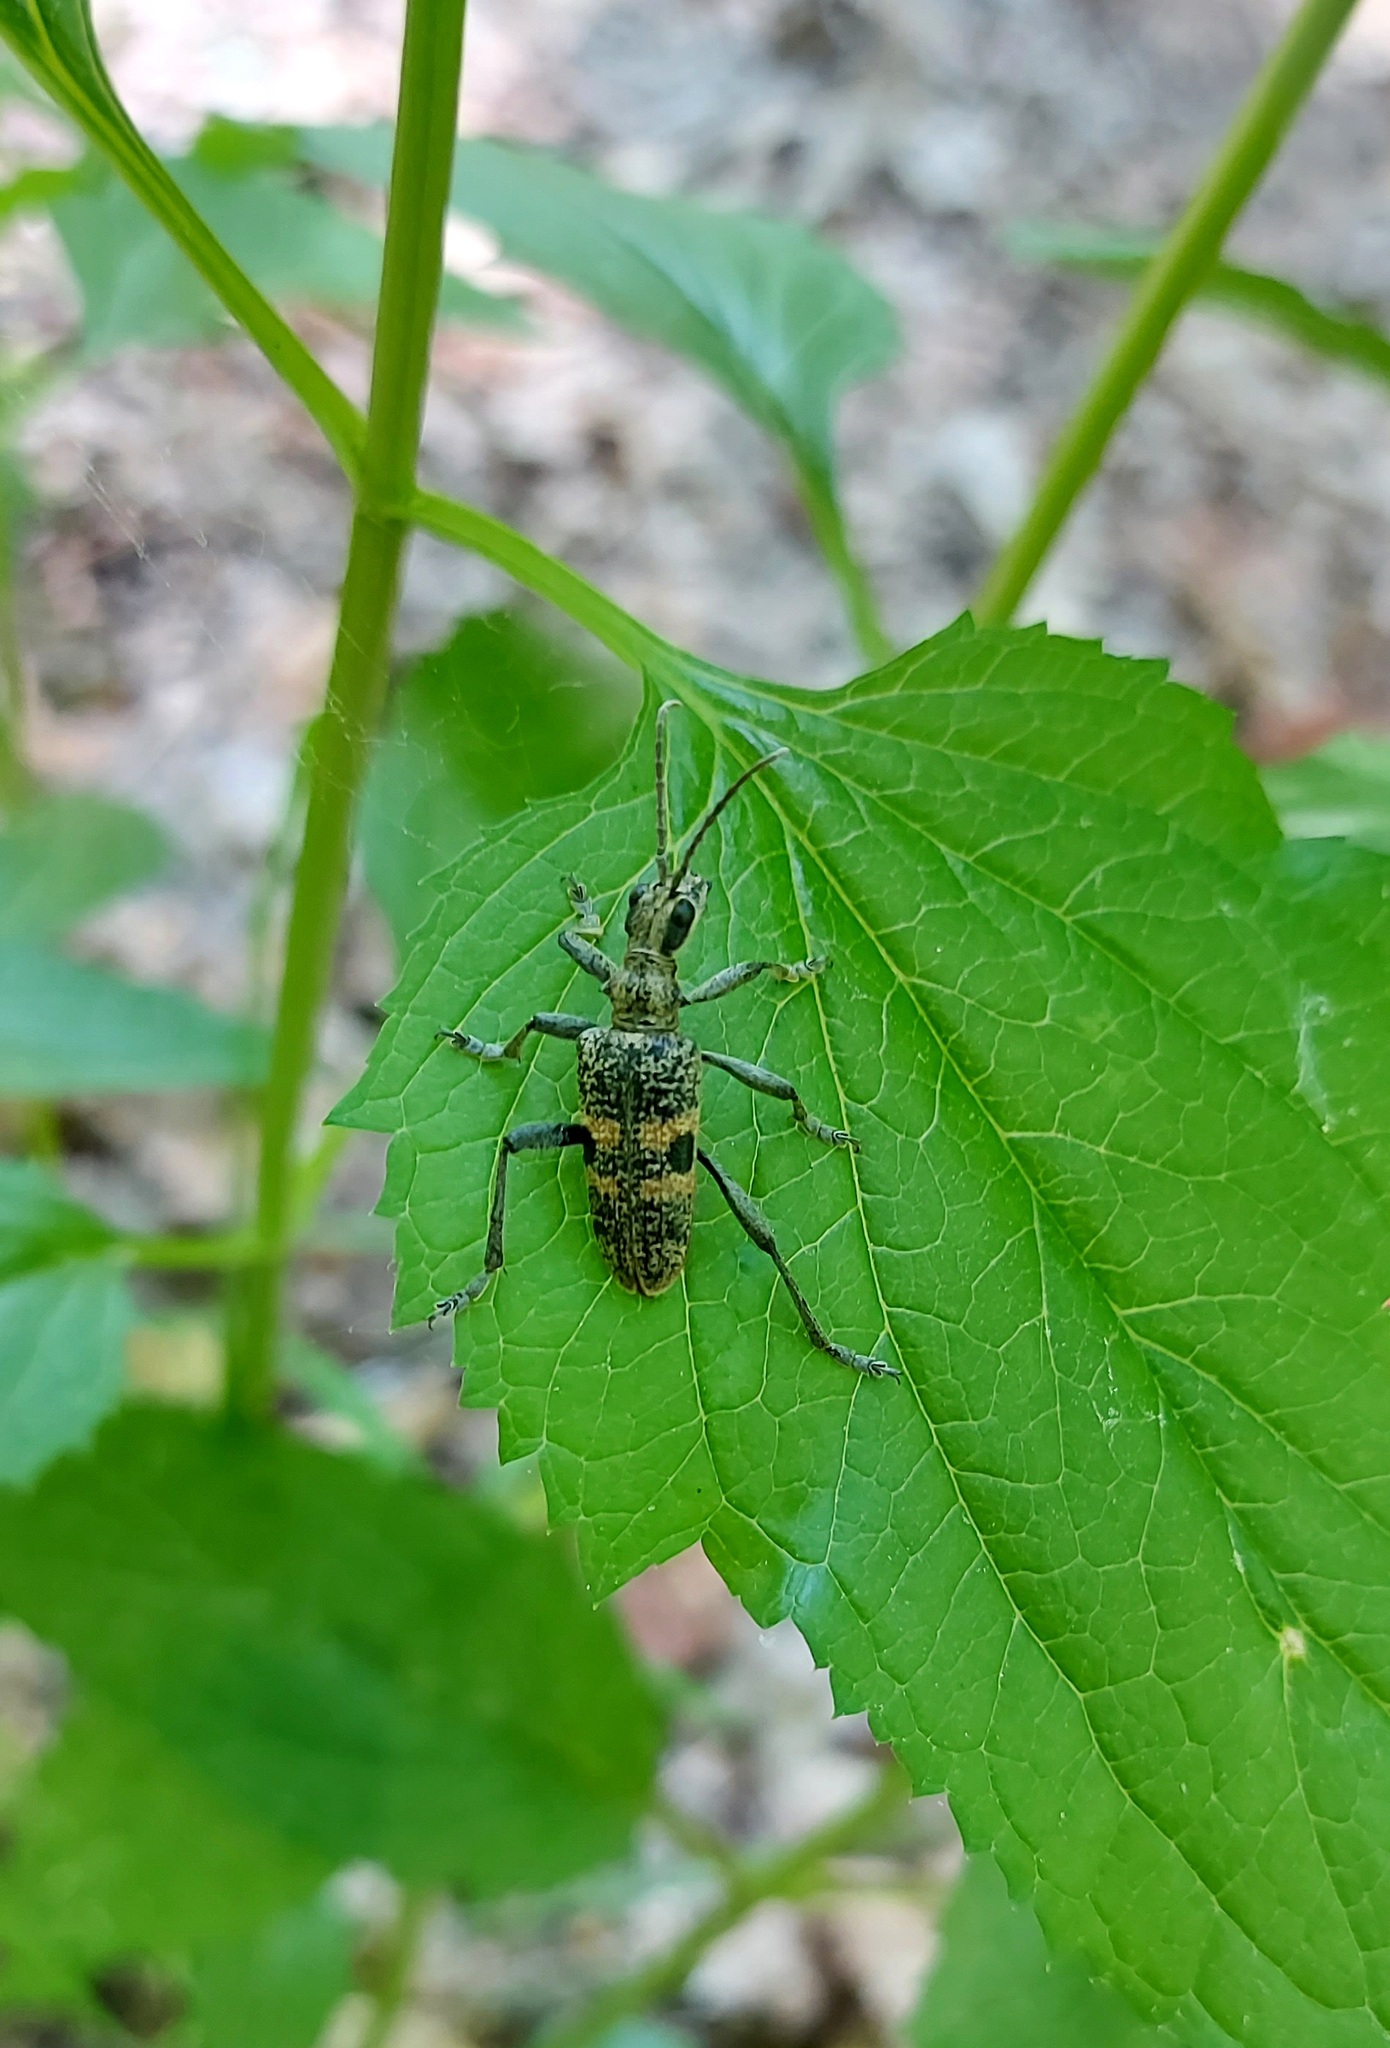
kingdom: Animalia
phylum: Arthropoda
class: Insecta
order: Coleoptera
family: Cerambycidae
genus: Rhagium
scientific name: Rhagium mordax
